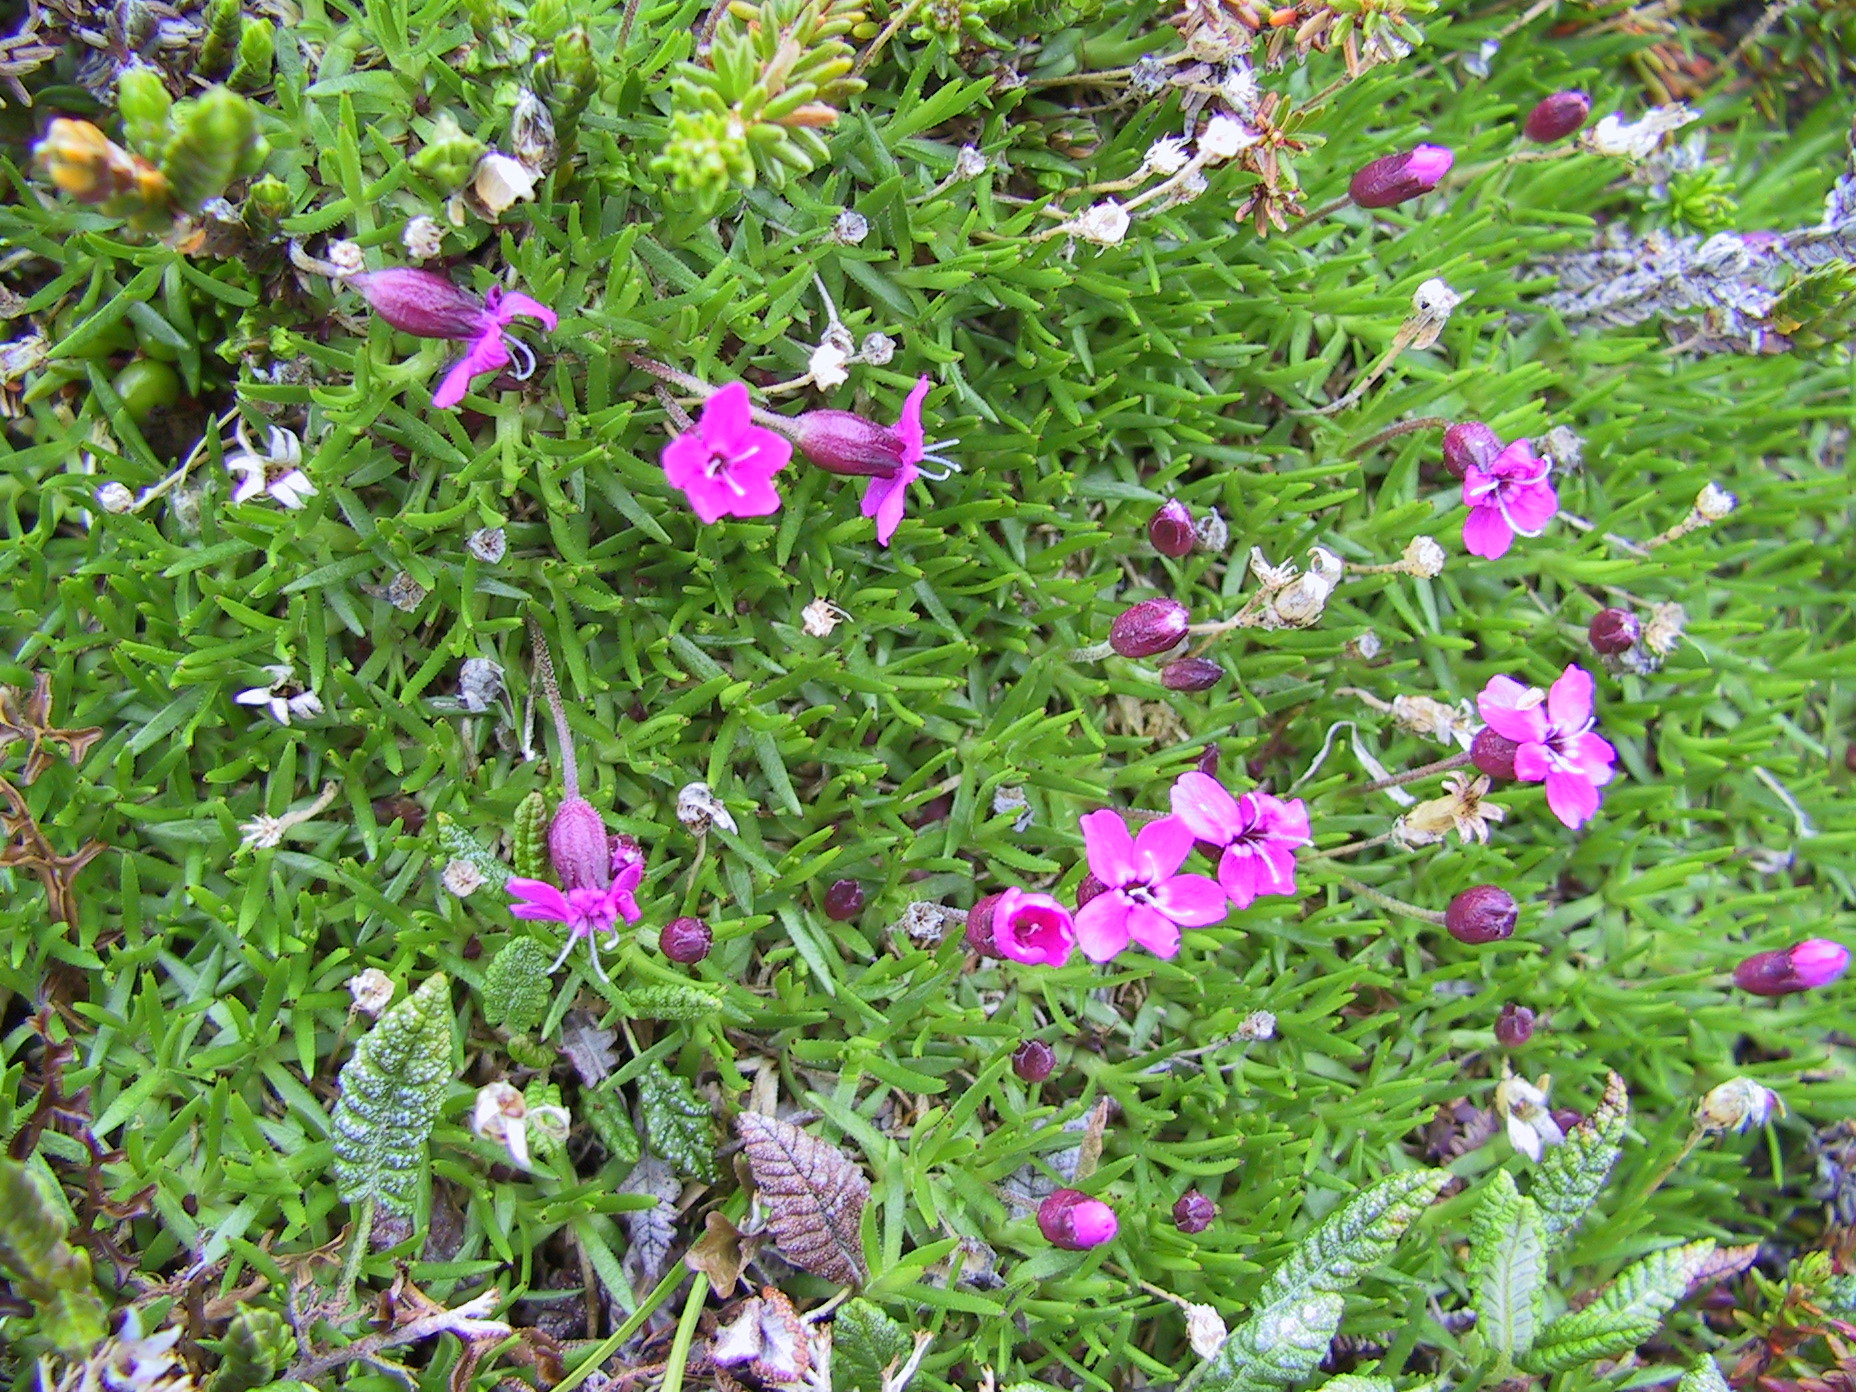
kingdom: Plantae
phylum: Tracheophyta
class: Magnoliopsida
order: Caryophyllales
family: Caryophyllaceae
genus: Silene
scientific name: Silene acaulis
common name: Moss campion
